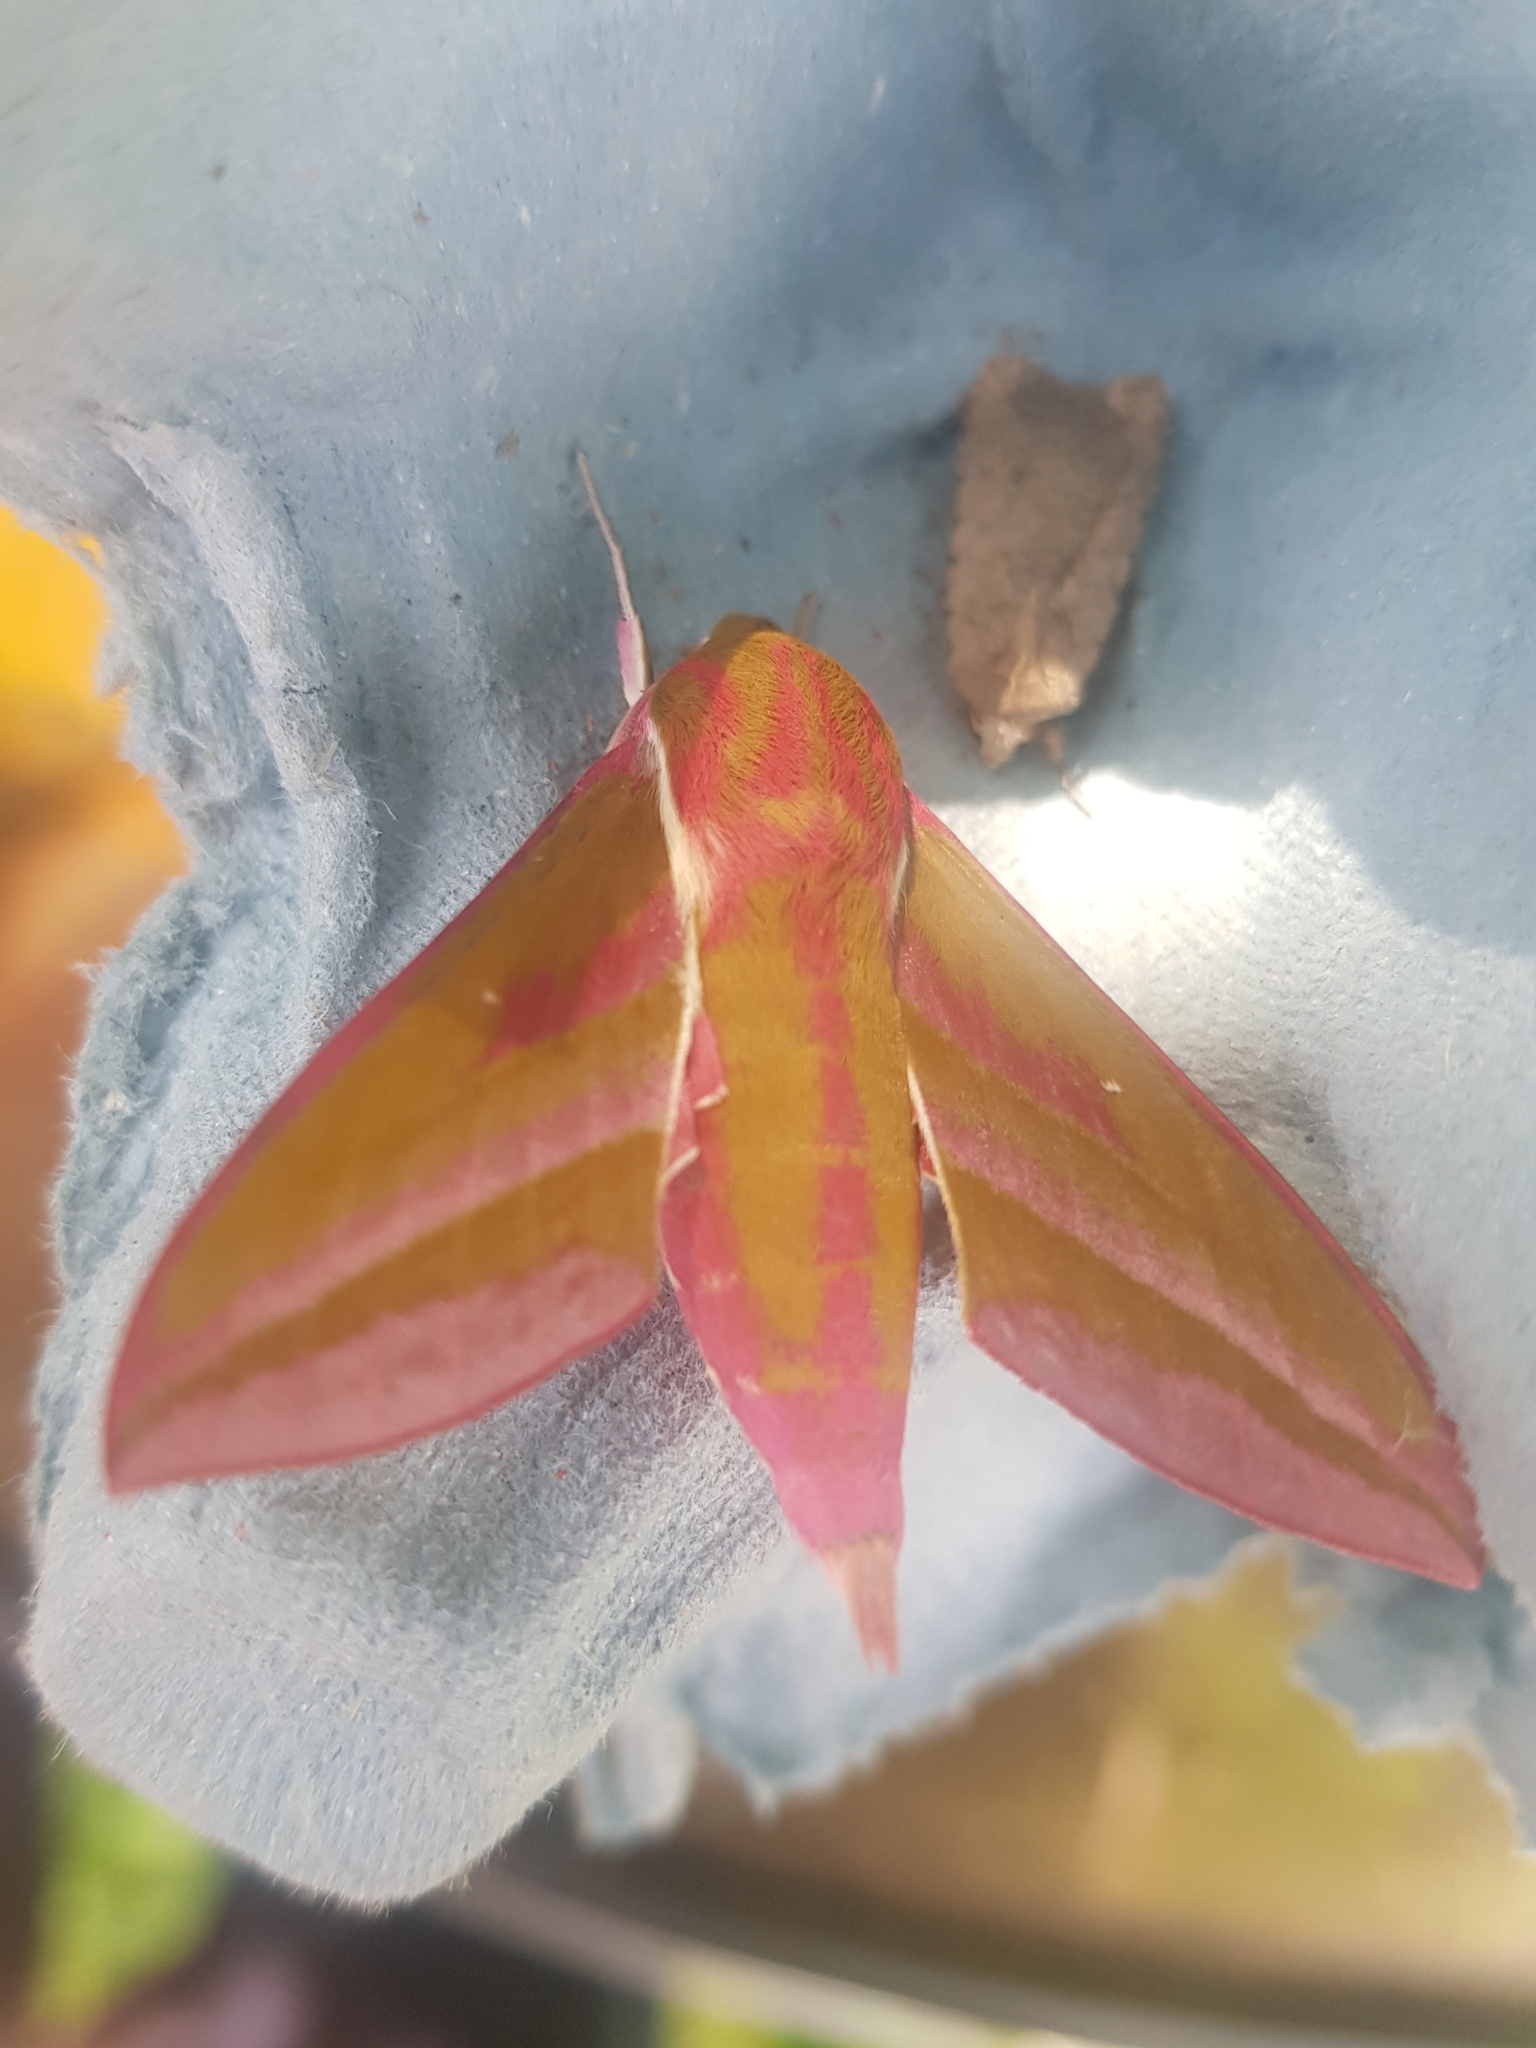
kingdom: Animalia
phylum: Arthropoda
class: Insecta
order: Lepidoptera
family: Sphingidae
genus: Deilephila
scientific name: Deilephila elpenor
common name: Elephant hawk-moth
